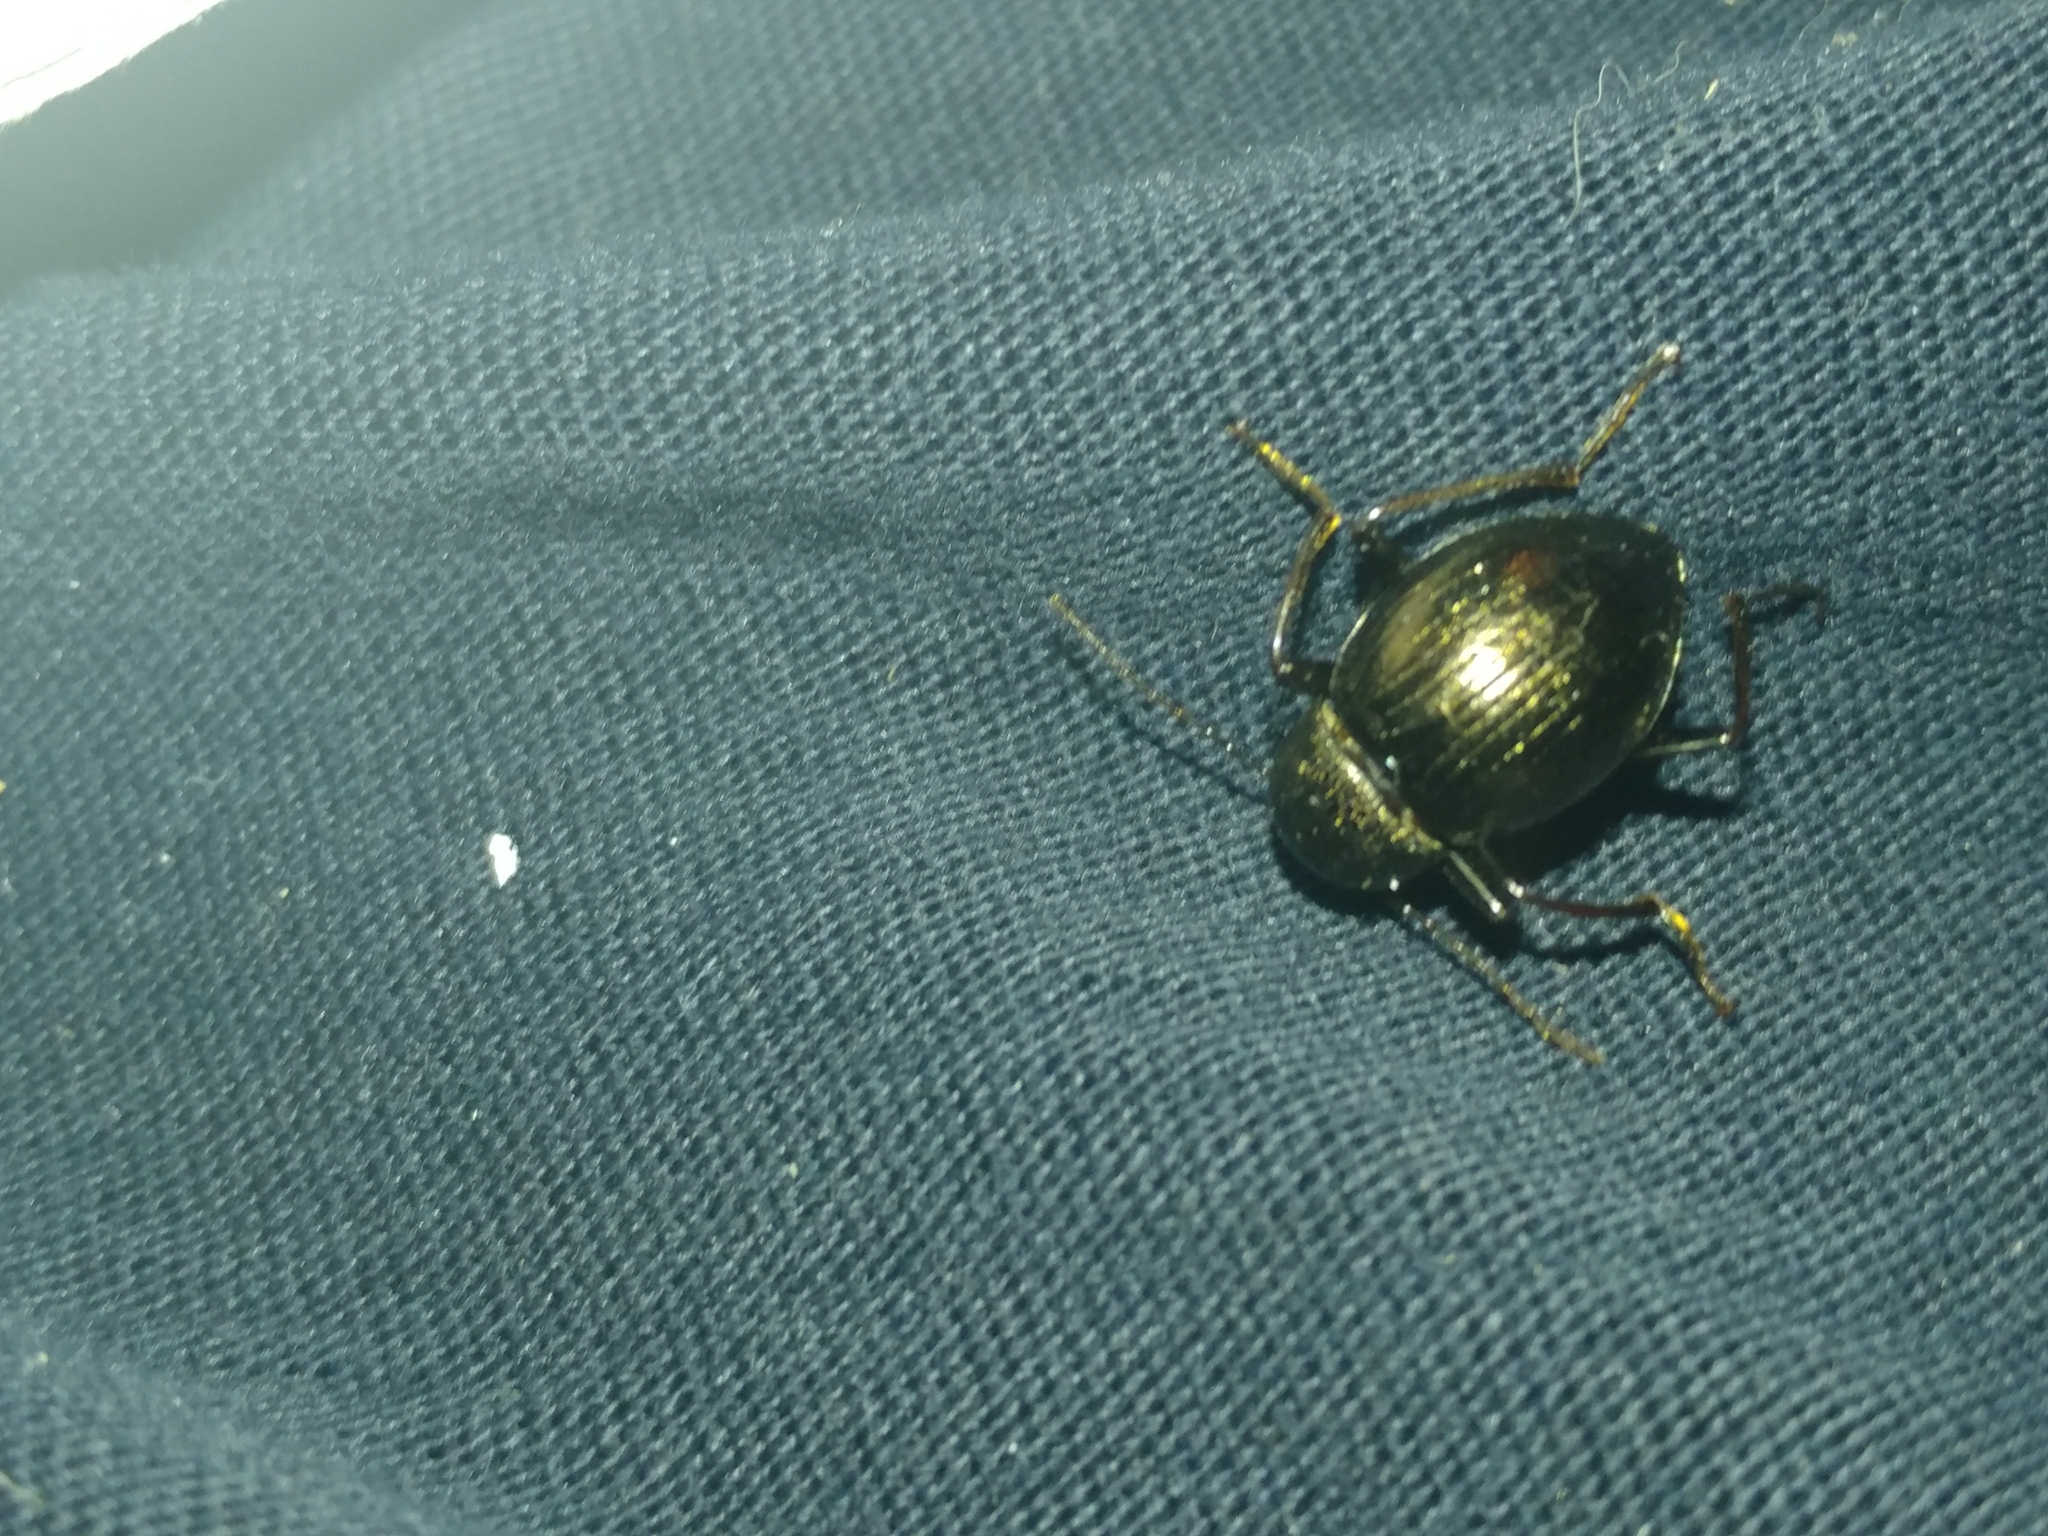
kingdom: Animalia
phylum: Arthropoda
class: Insecta
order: Coleoptera
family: Tenebrionidae
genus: Meracantha
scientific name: Meracantha contracta
